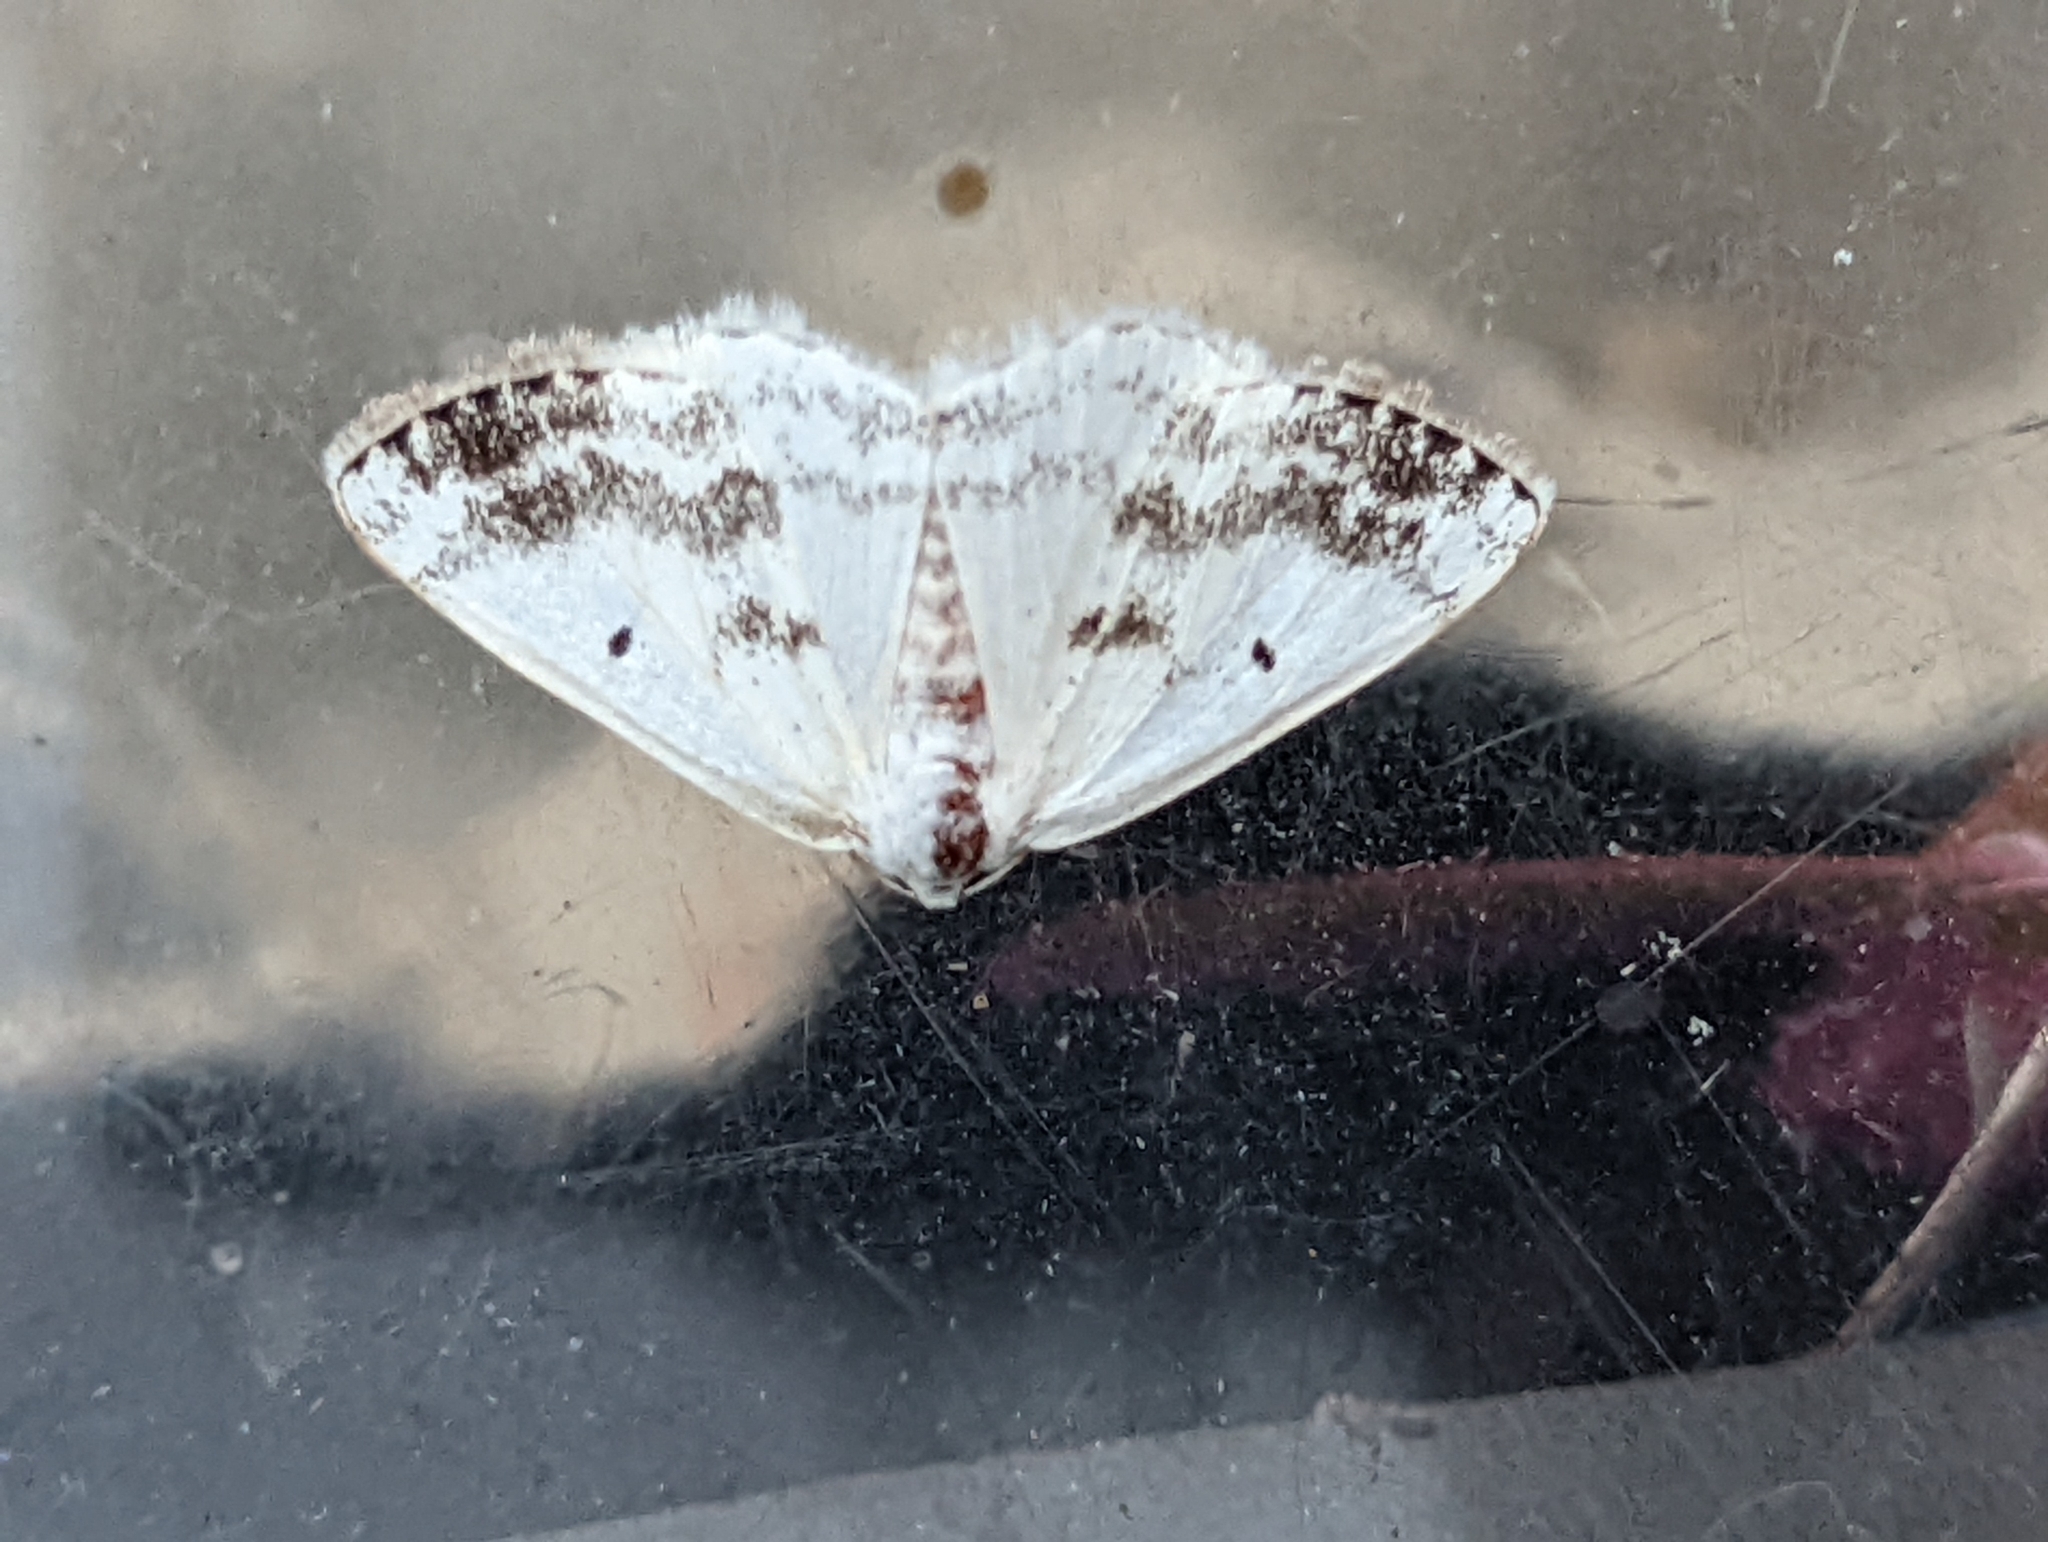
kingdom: Animalia
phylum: Arthropoda
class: Insecta
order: Lepidoptera
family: Geometridae
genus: Lomographa
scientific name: Lomographa temerata
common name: Clouded silver
